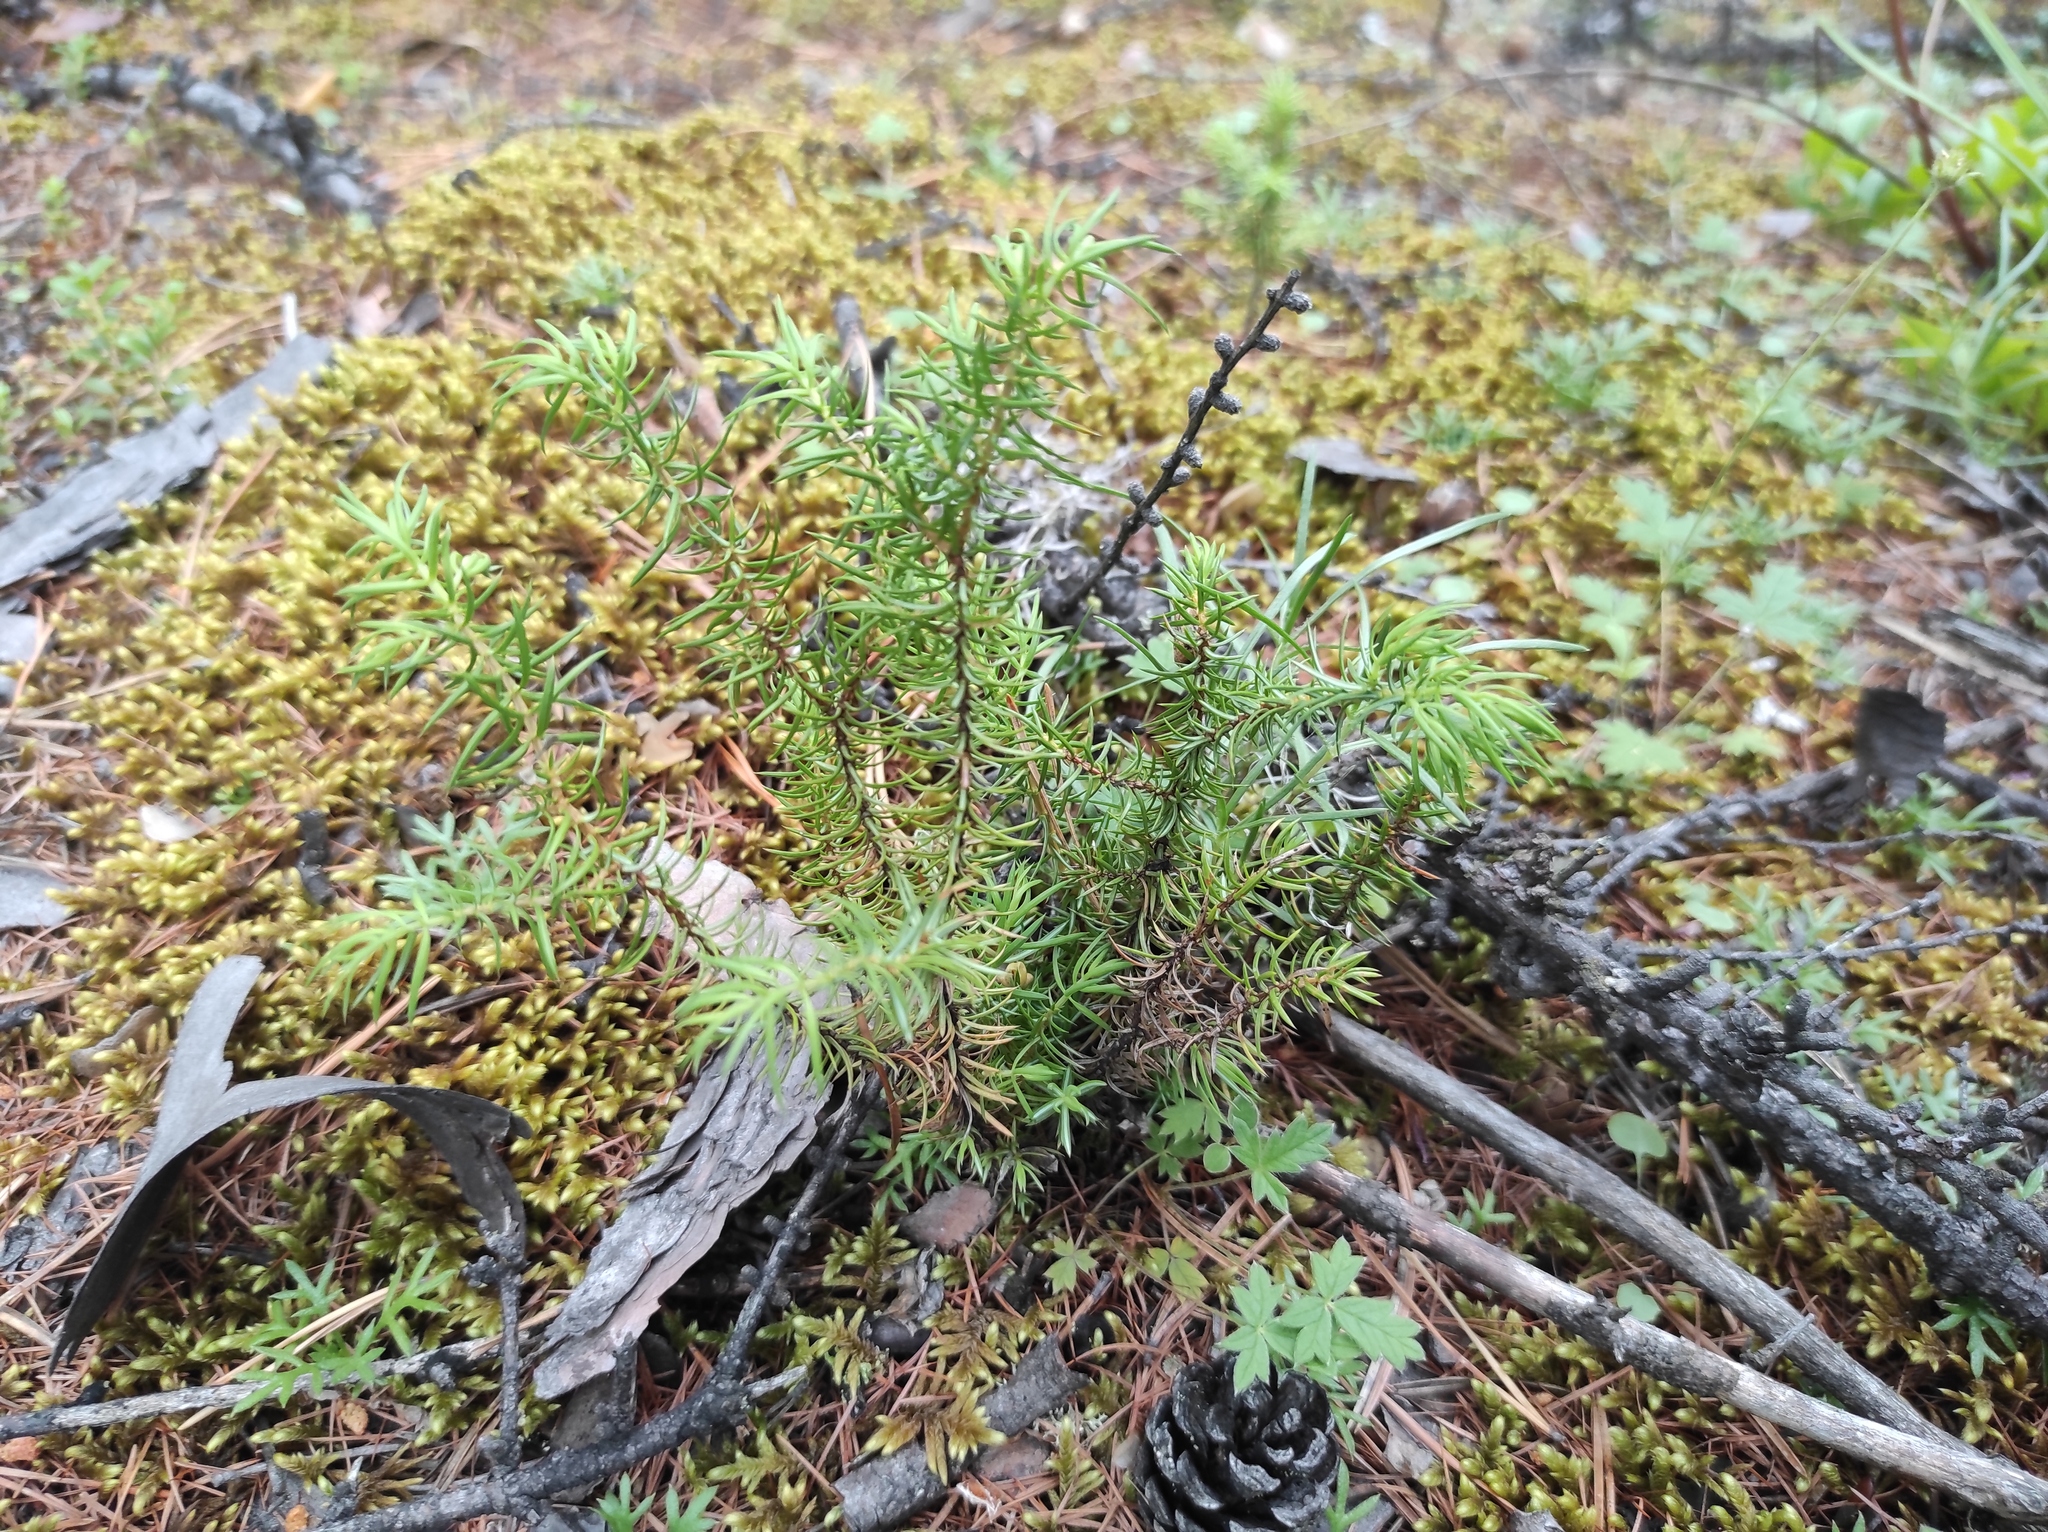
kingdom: Plantae
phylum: Tracheophyta
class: Pinopsida
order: Pinales
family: Pinaceae
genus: Picea
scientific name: Picea obovata
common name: Siberian spruce
